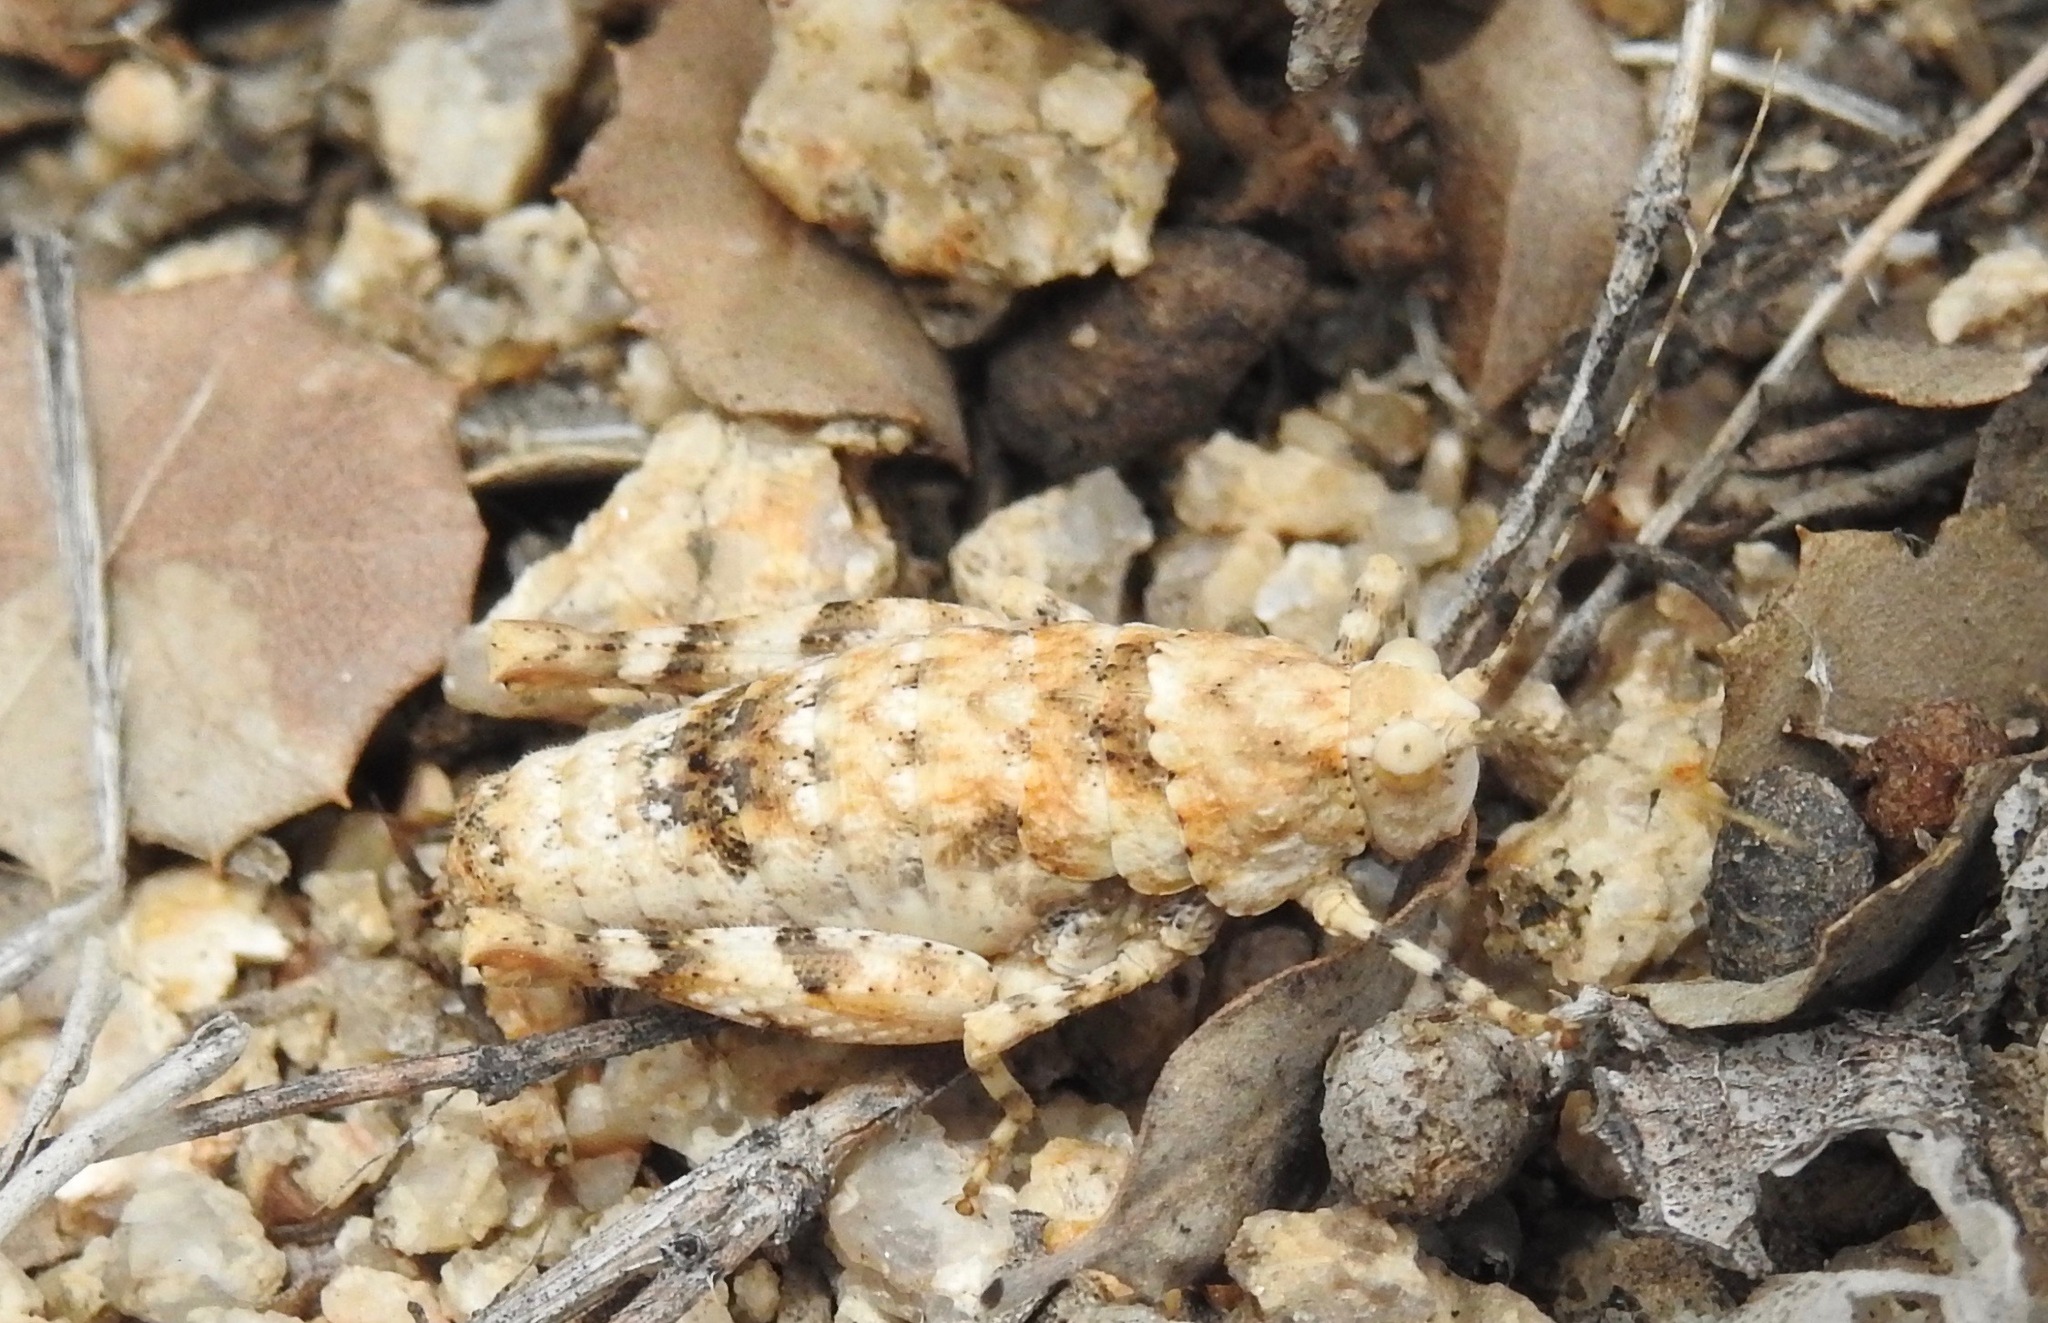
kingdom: Animalia
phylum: Arthropoda
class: Insecta
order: Orthoptera
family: Tanaoceridae
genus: Tanaocerus
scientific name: Tanaocerus koebelei
